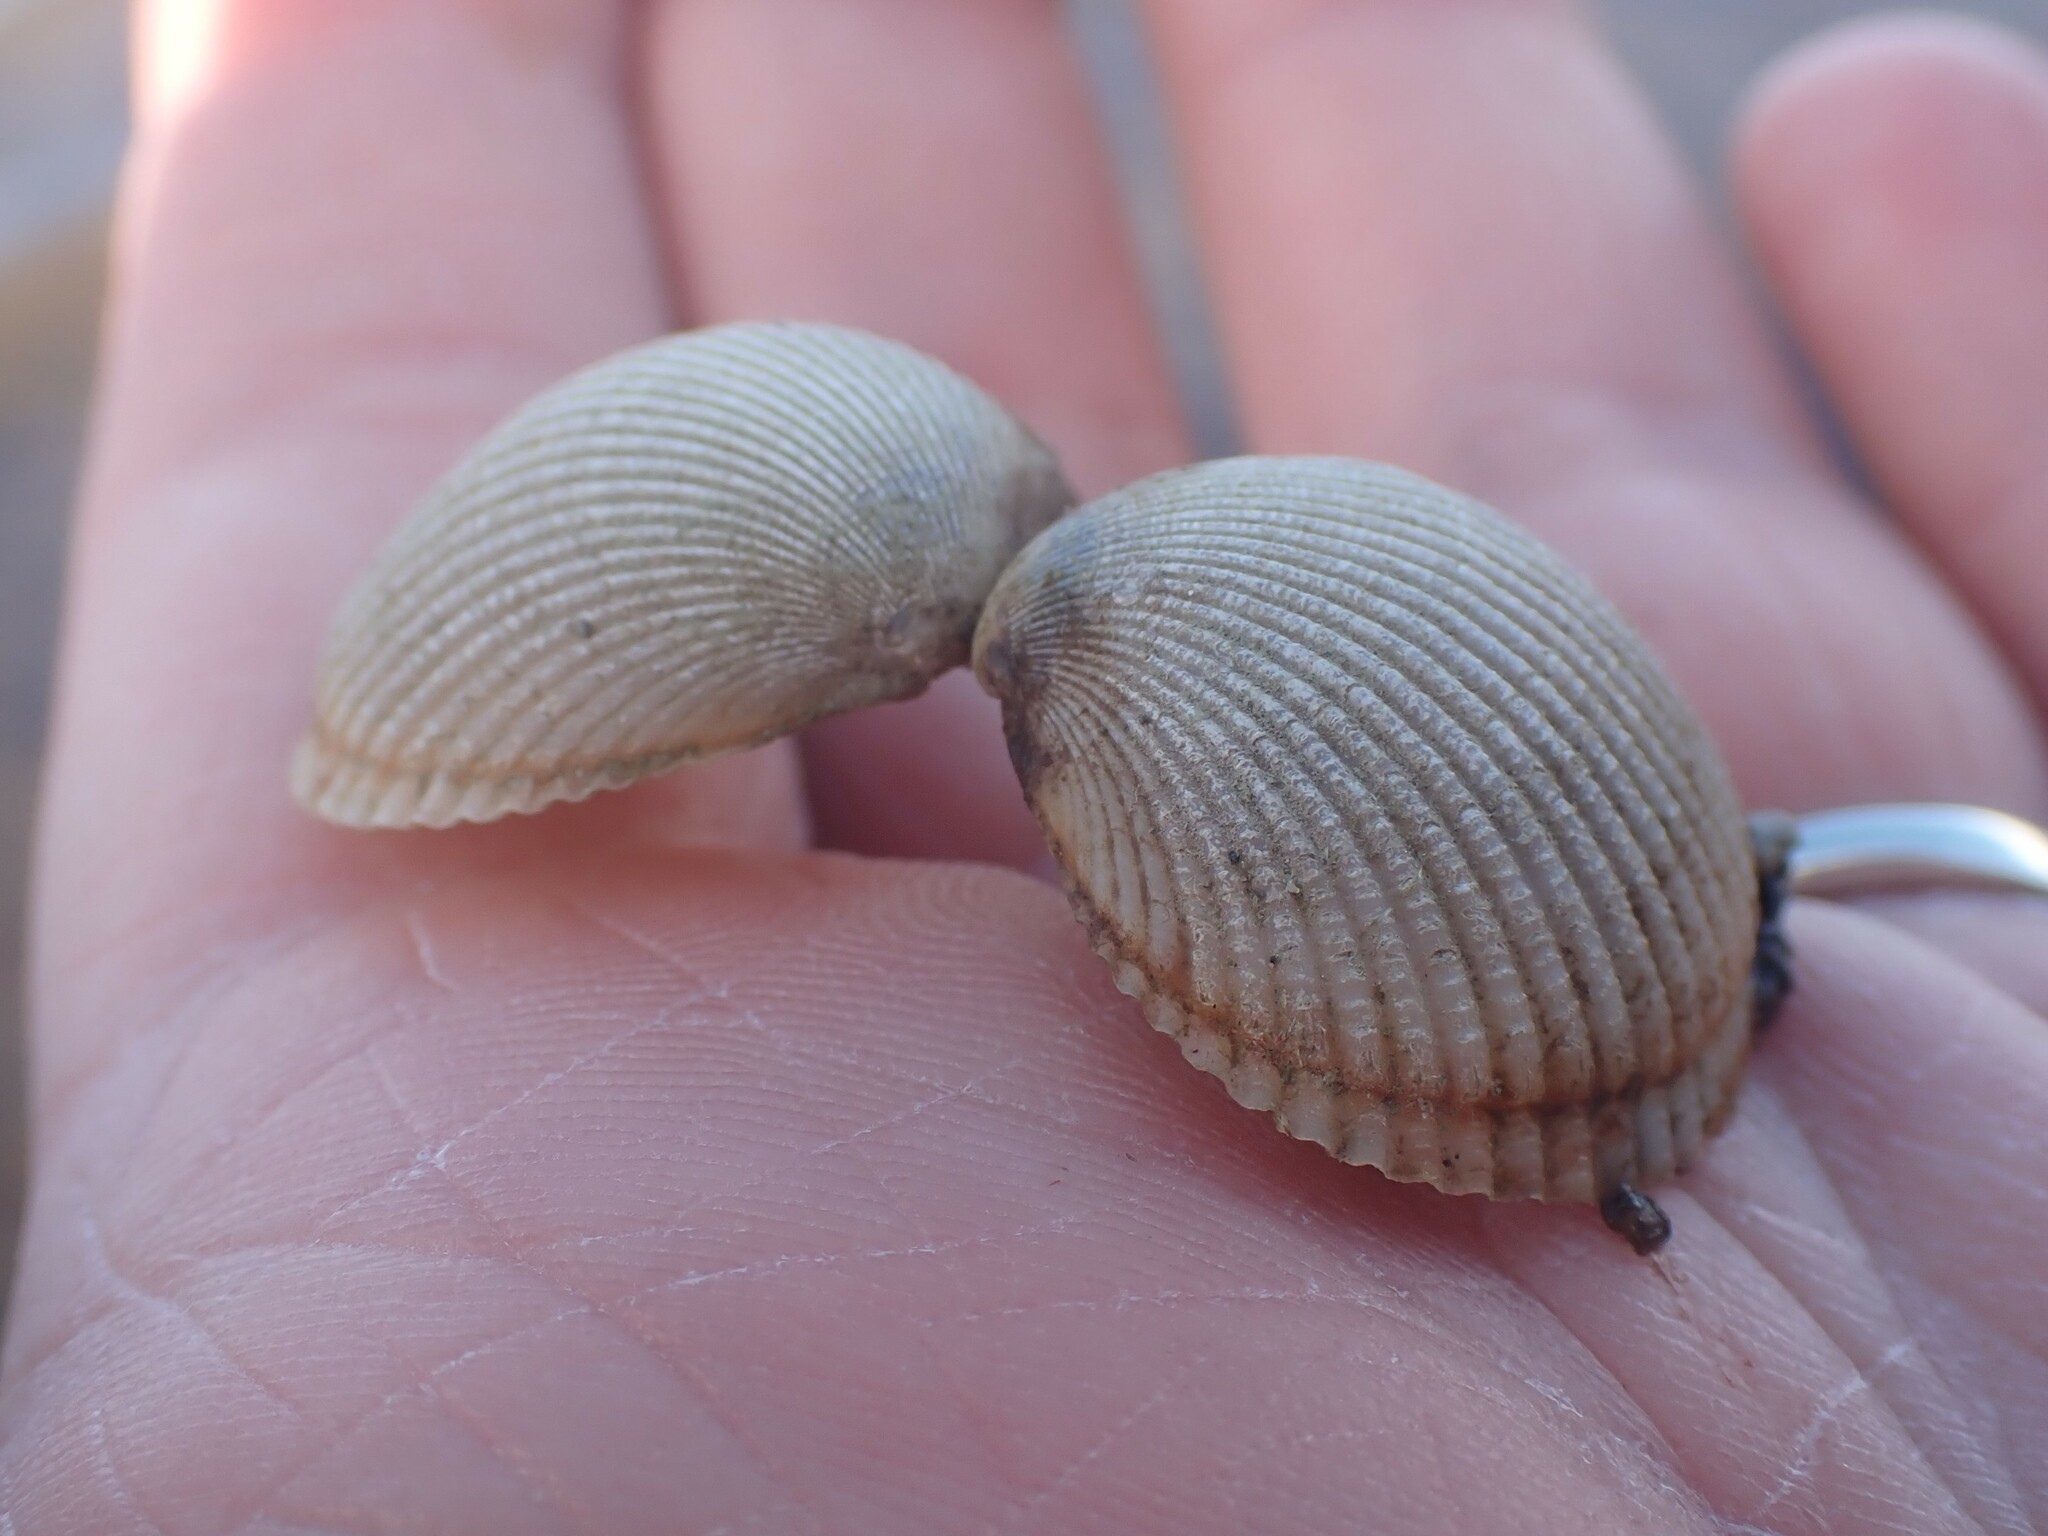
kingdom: Animalia
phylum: Mollusca
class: Bivalvia
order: Cardiida
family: Cardiidae
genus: Clinocardium
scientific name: Clinocardium nuttallii
